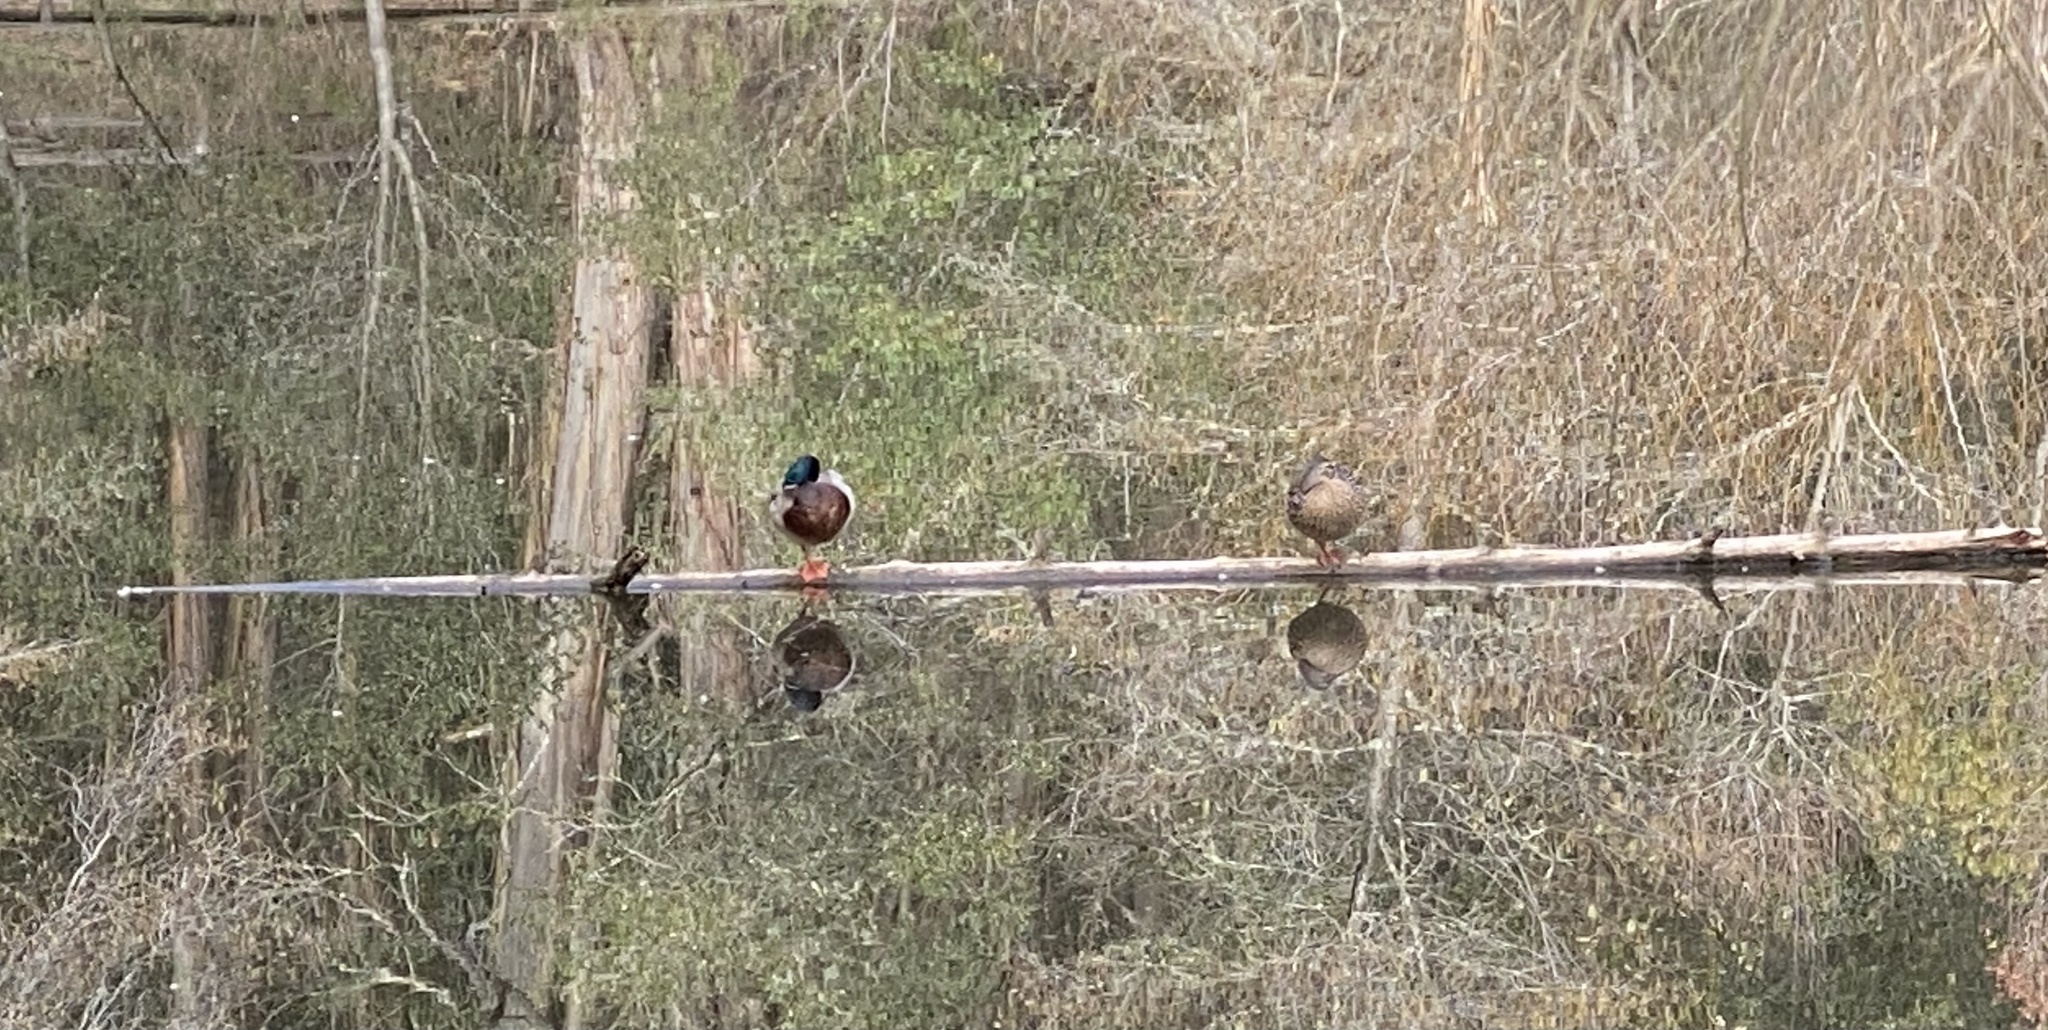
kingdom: Animalia
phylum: Chordata
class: Aves
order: Anseriformes
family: Anatidae
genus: Anas
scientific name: Anas platyrhynchos
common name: Mallard
